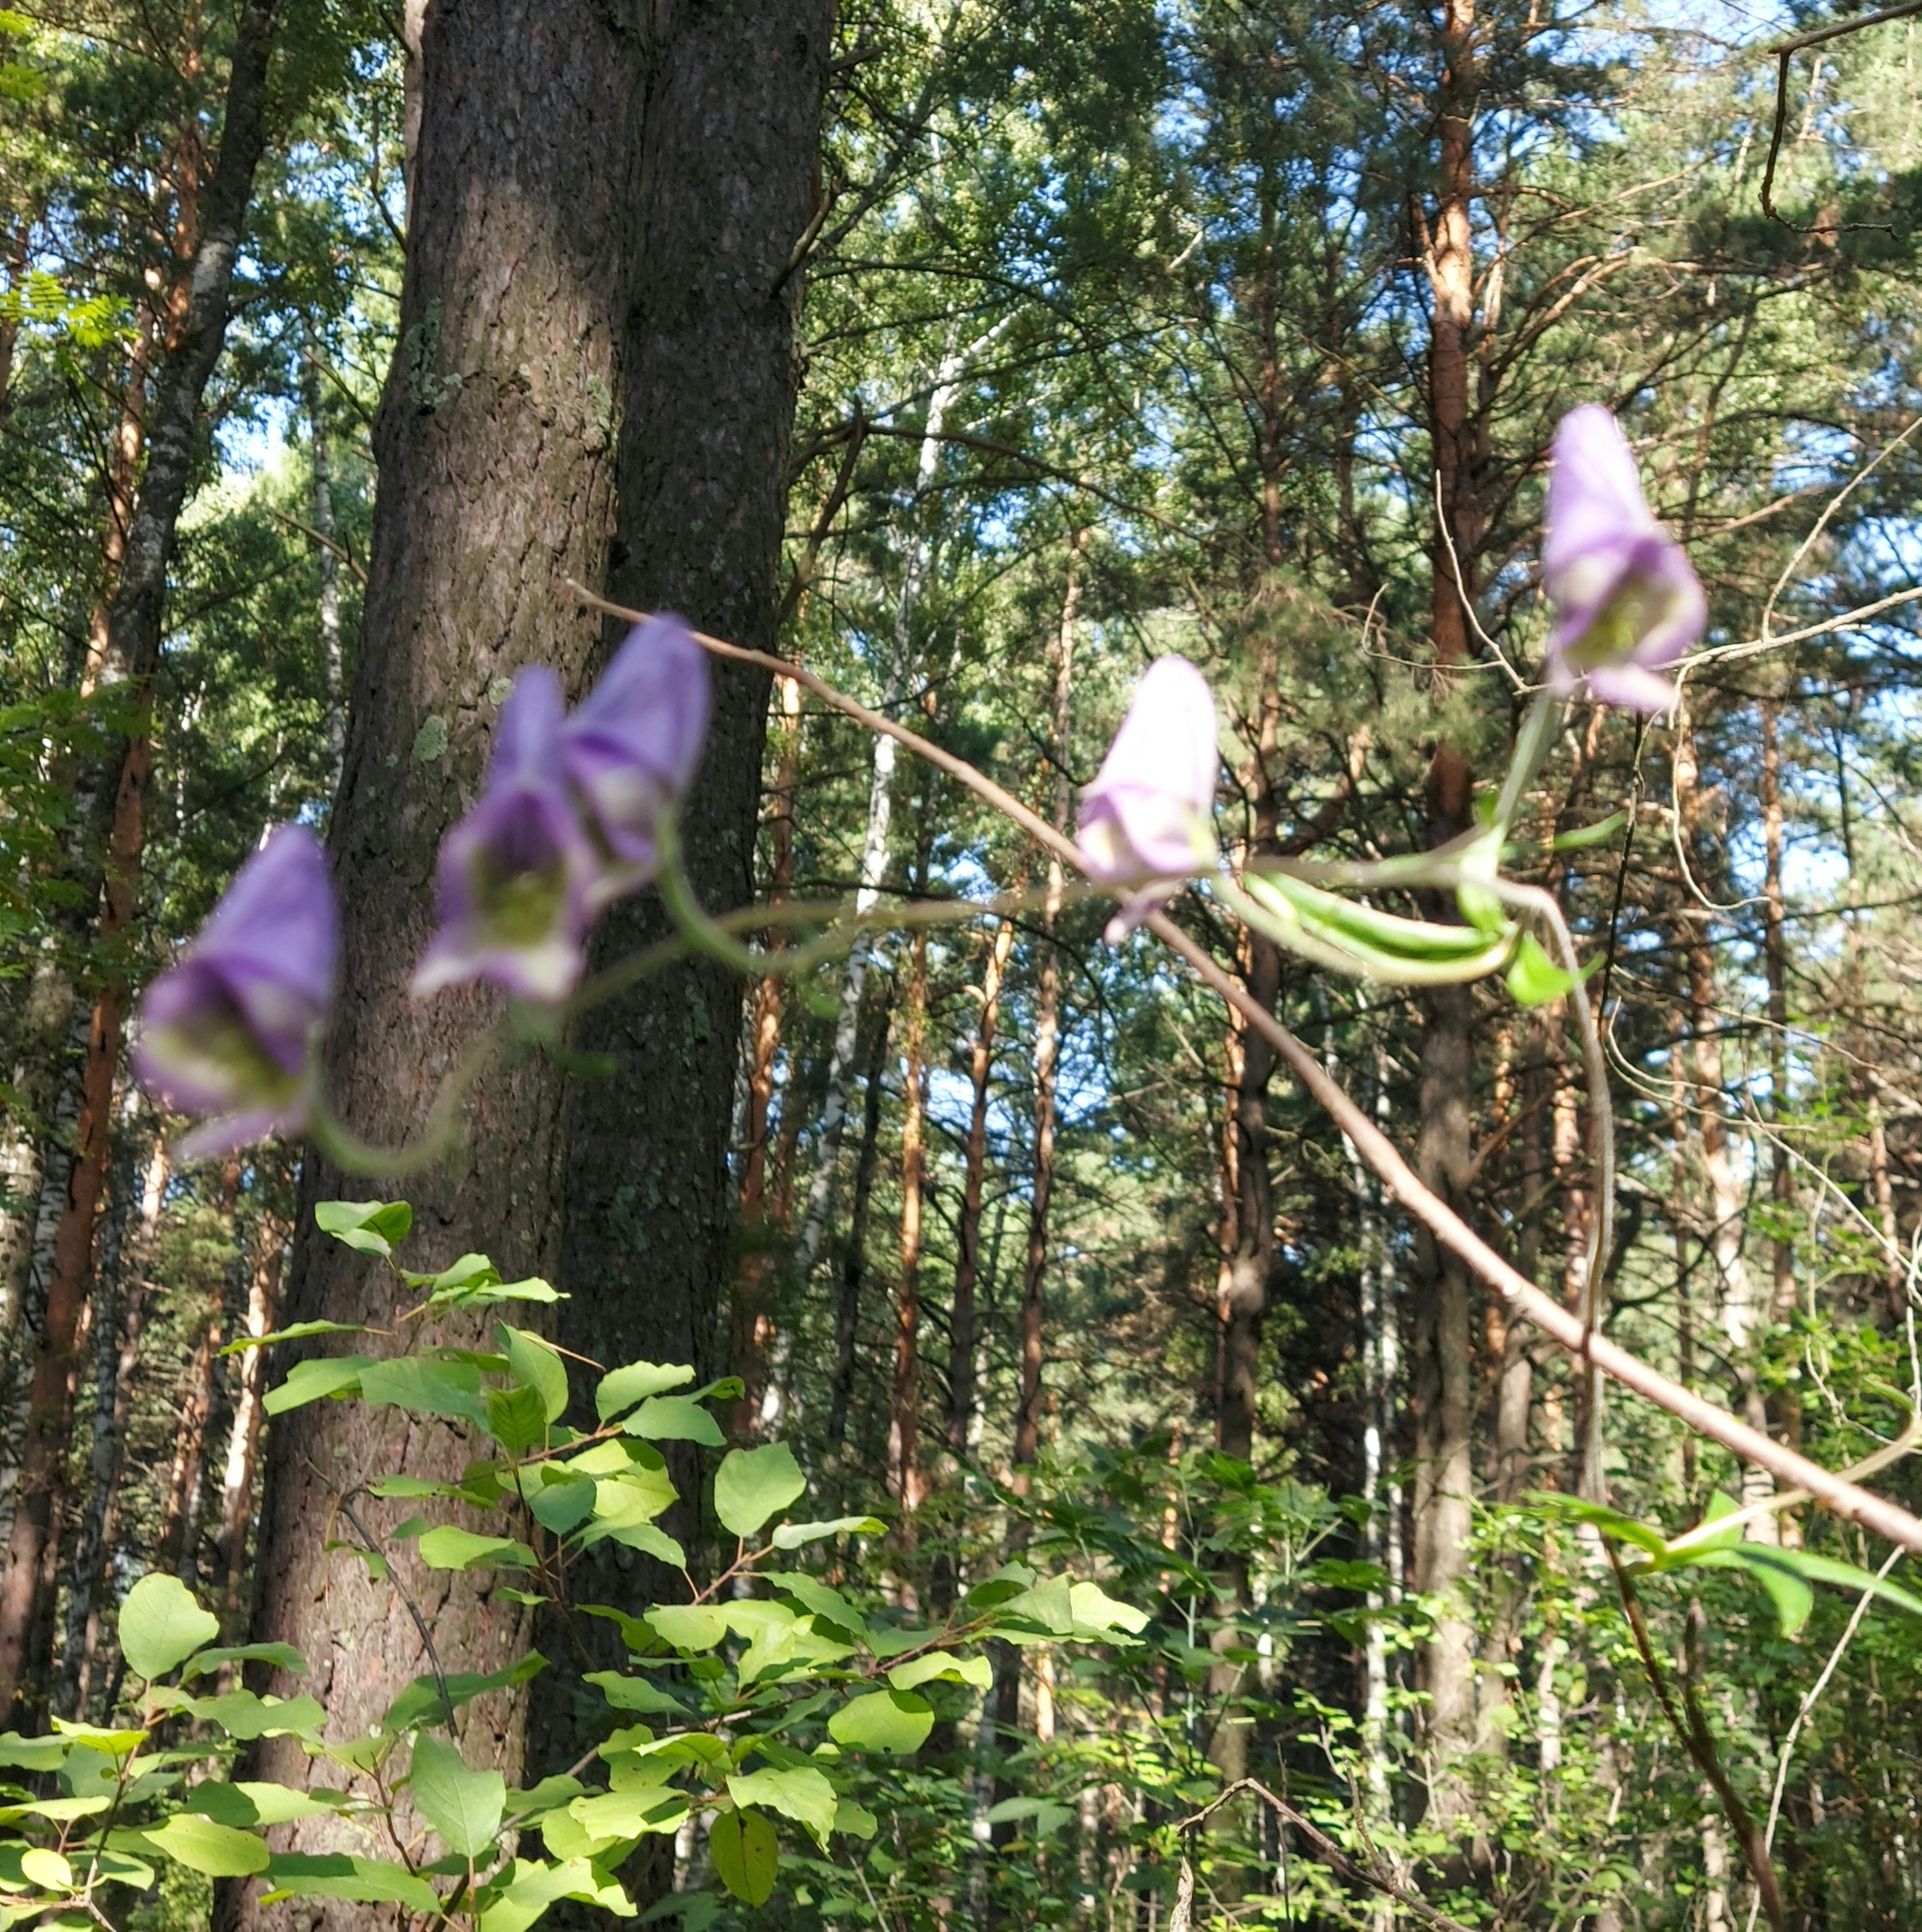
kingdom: Plantae
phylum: Tracheophyta
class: Magnoliopsida
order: Ranunculales
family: Ranunculaceae
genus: Aconitum
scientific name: Aconitum volubile
